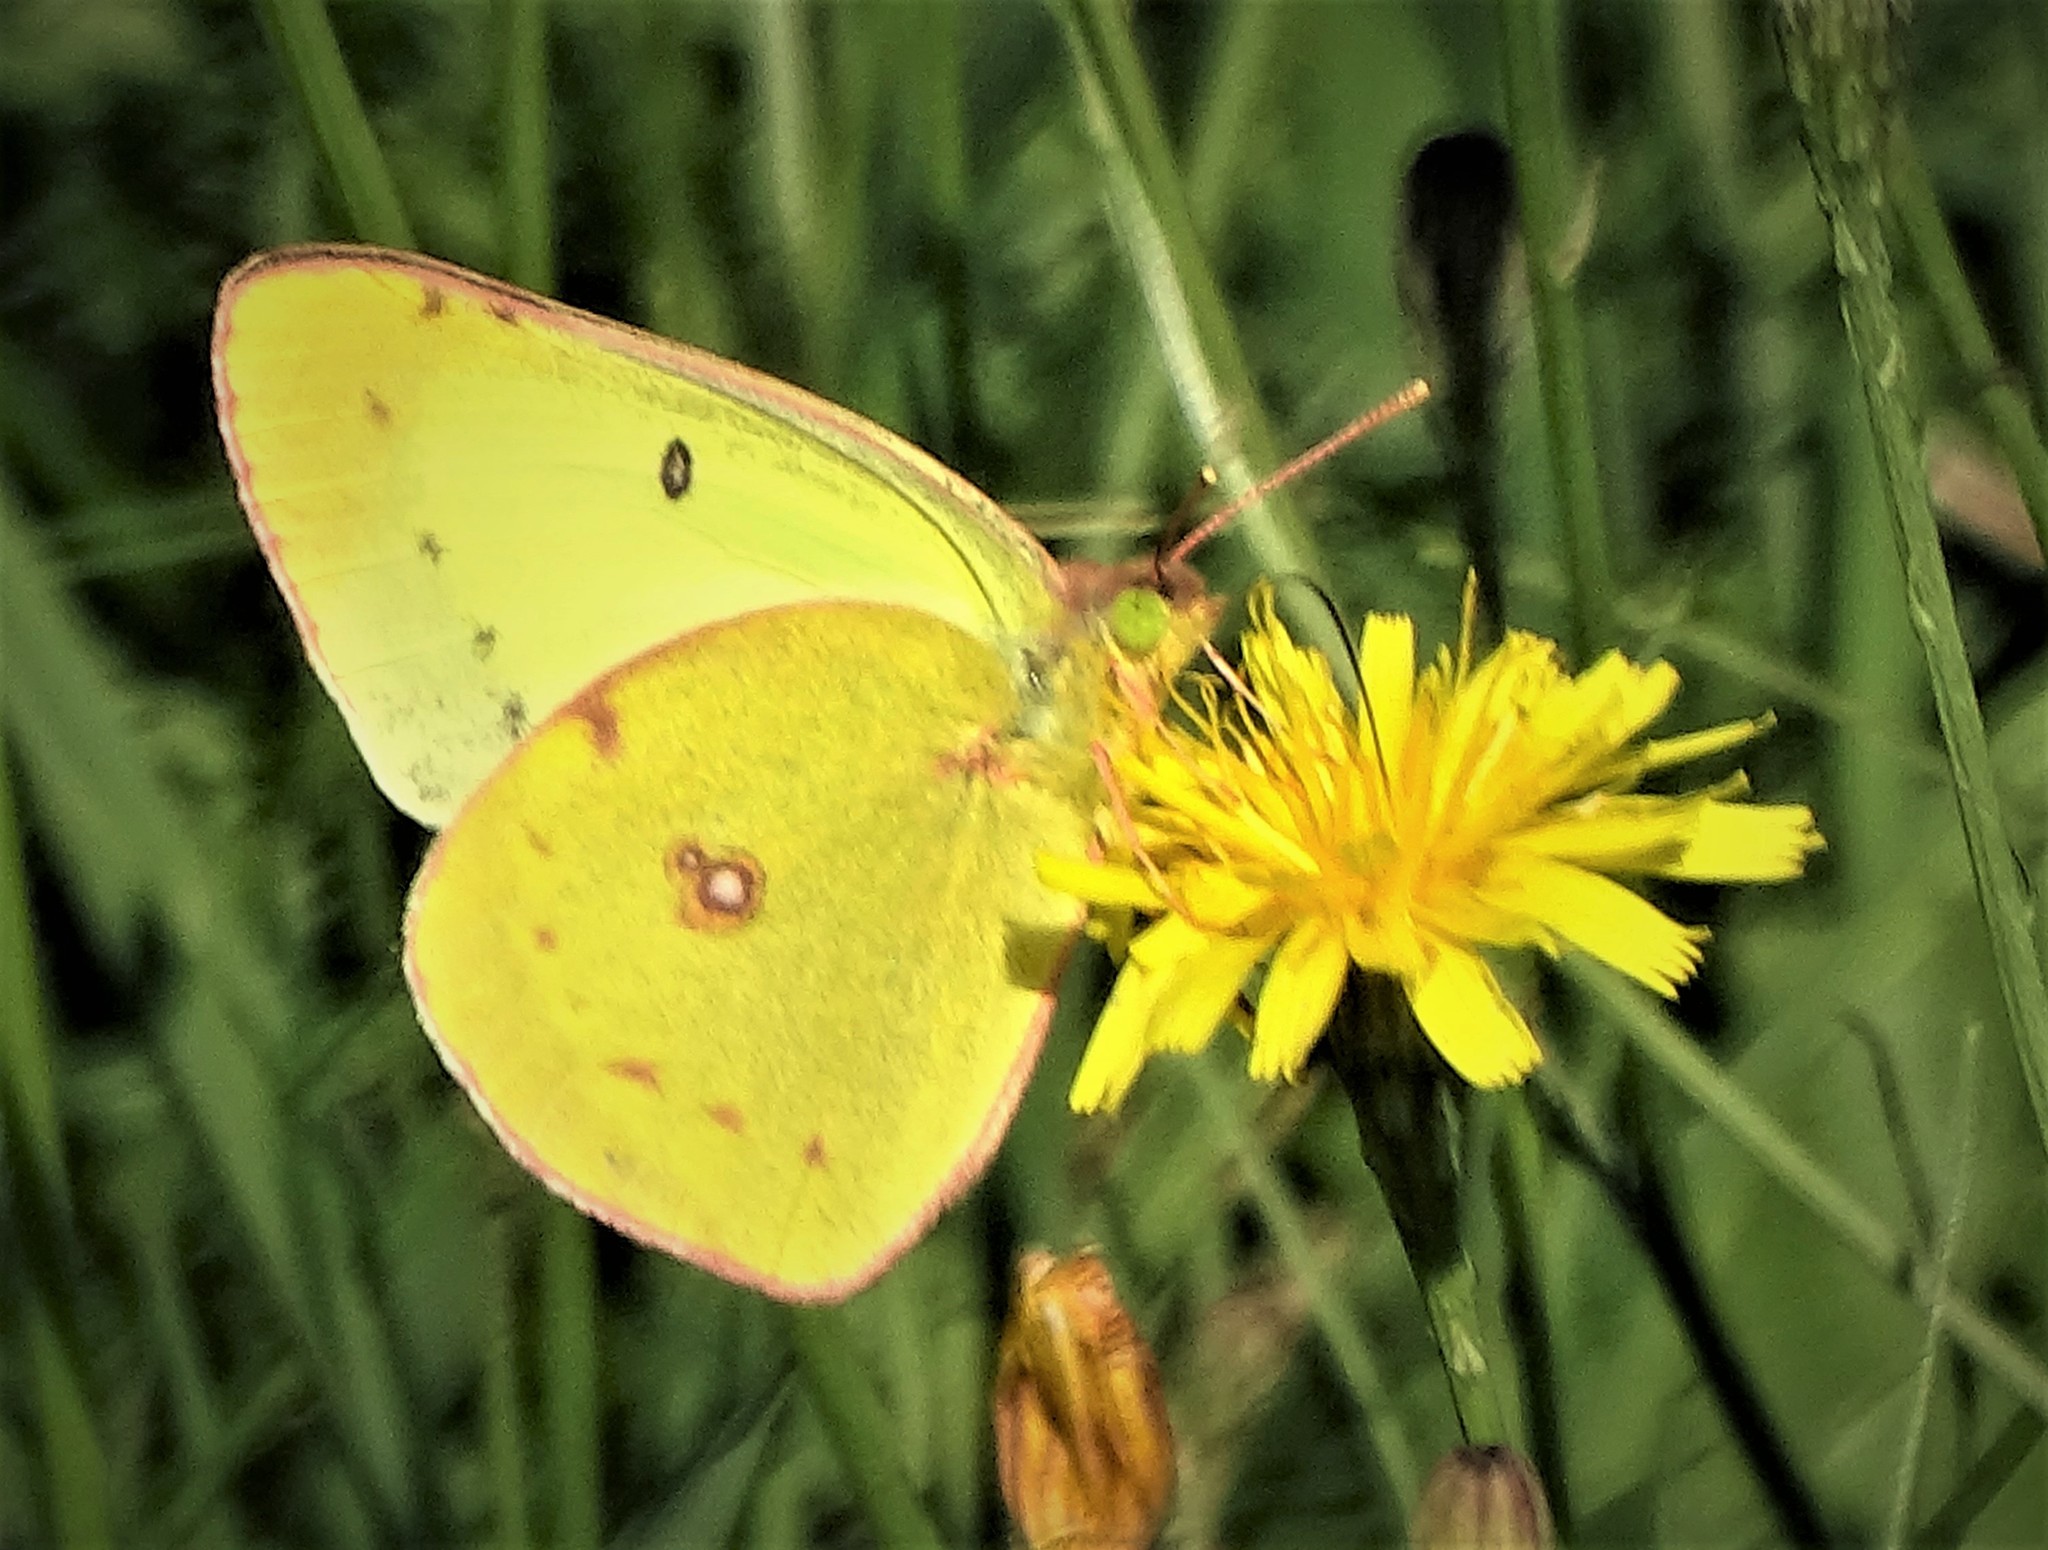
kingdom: Animalia
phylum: Arthropoda
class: Insecta
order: Lepidoptera
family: Pieridae
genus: Colias
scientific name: Colias philodice
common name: Clouded sulphur
